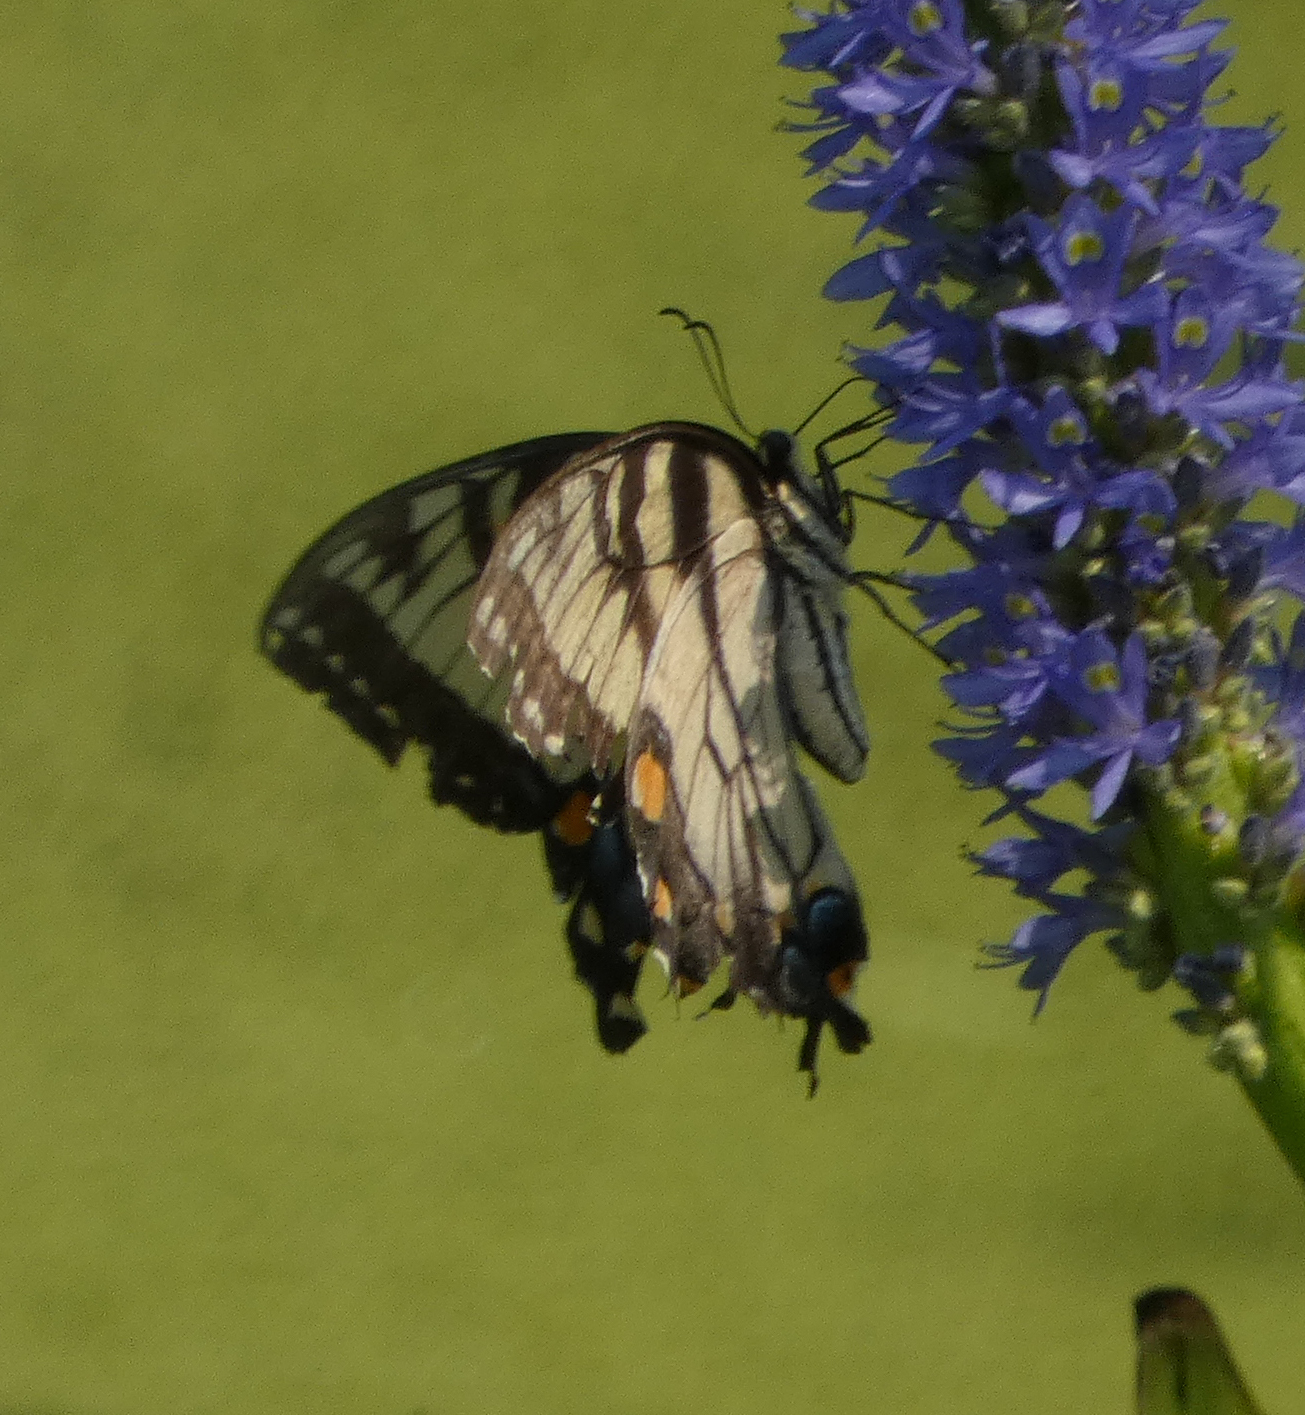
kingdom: Animalia
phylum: Arthropoda
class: Insecta
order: Lepidoptera
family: Papilionidae
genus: Papilio
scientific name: Papilio glaucus
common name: Tiger swallowtail
